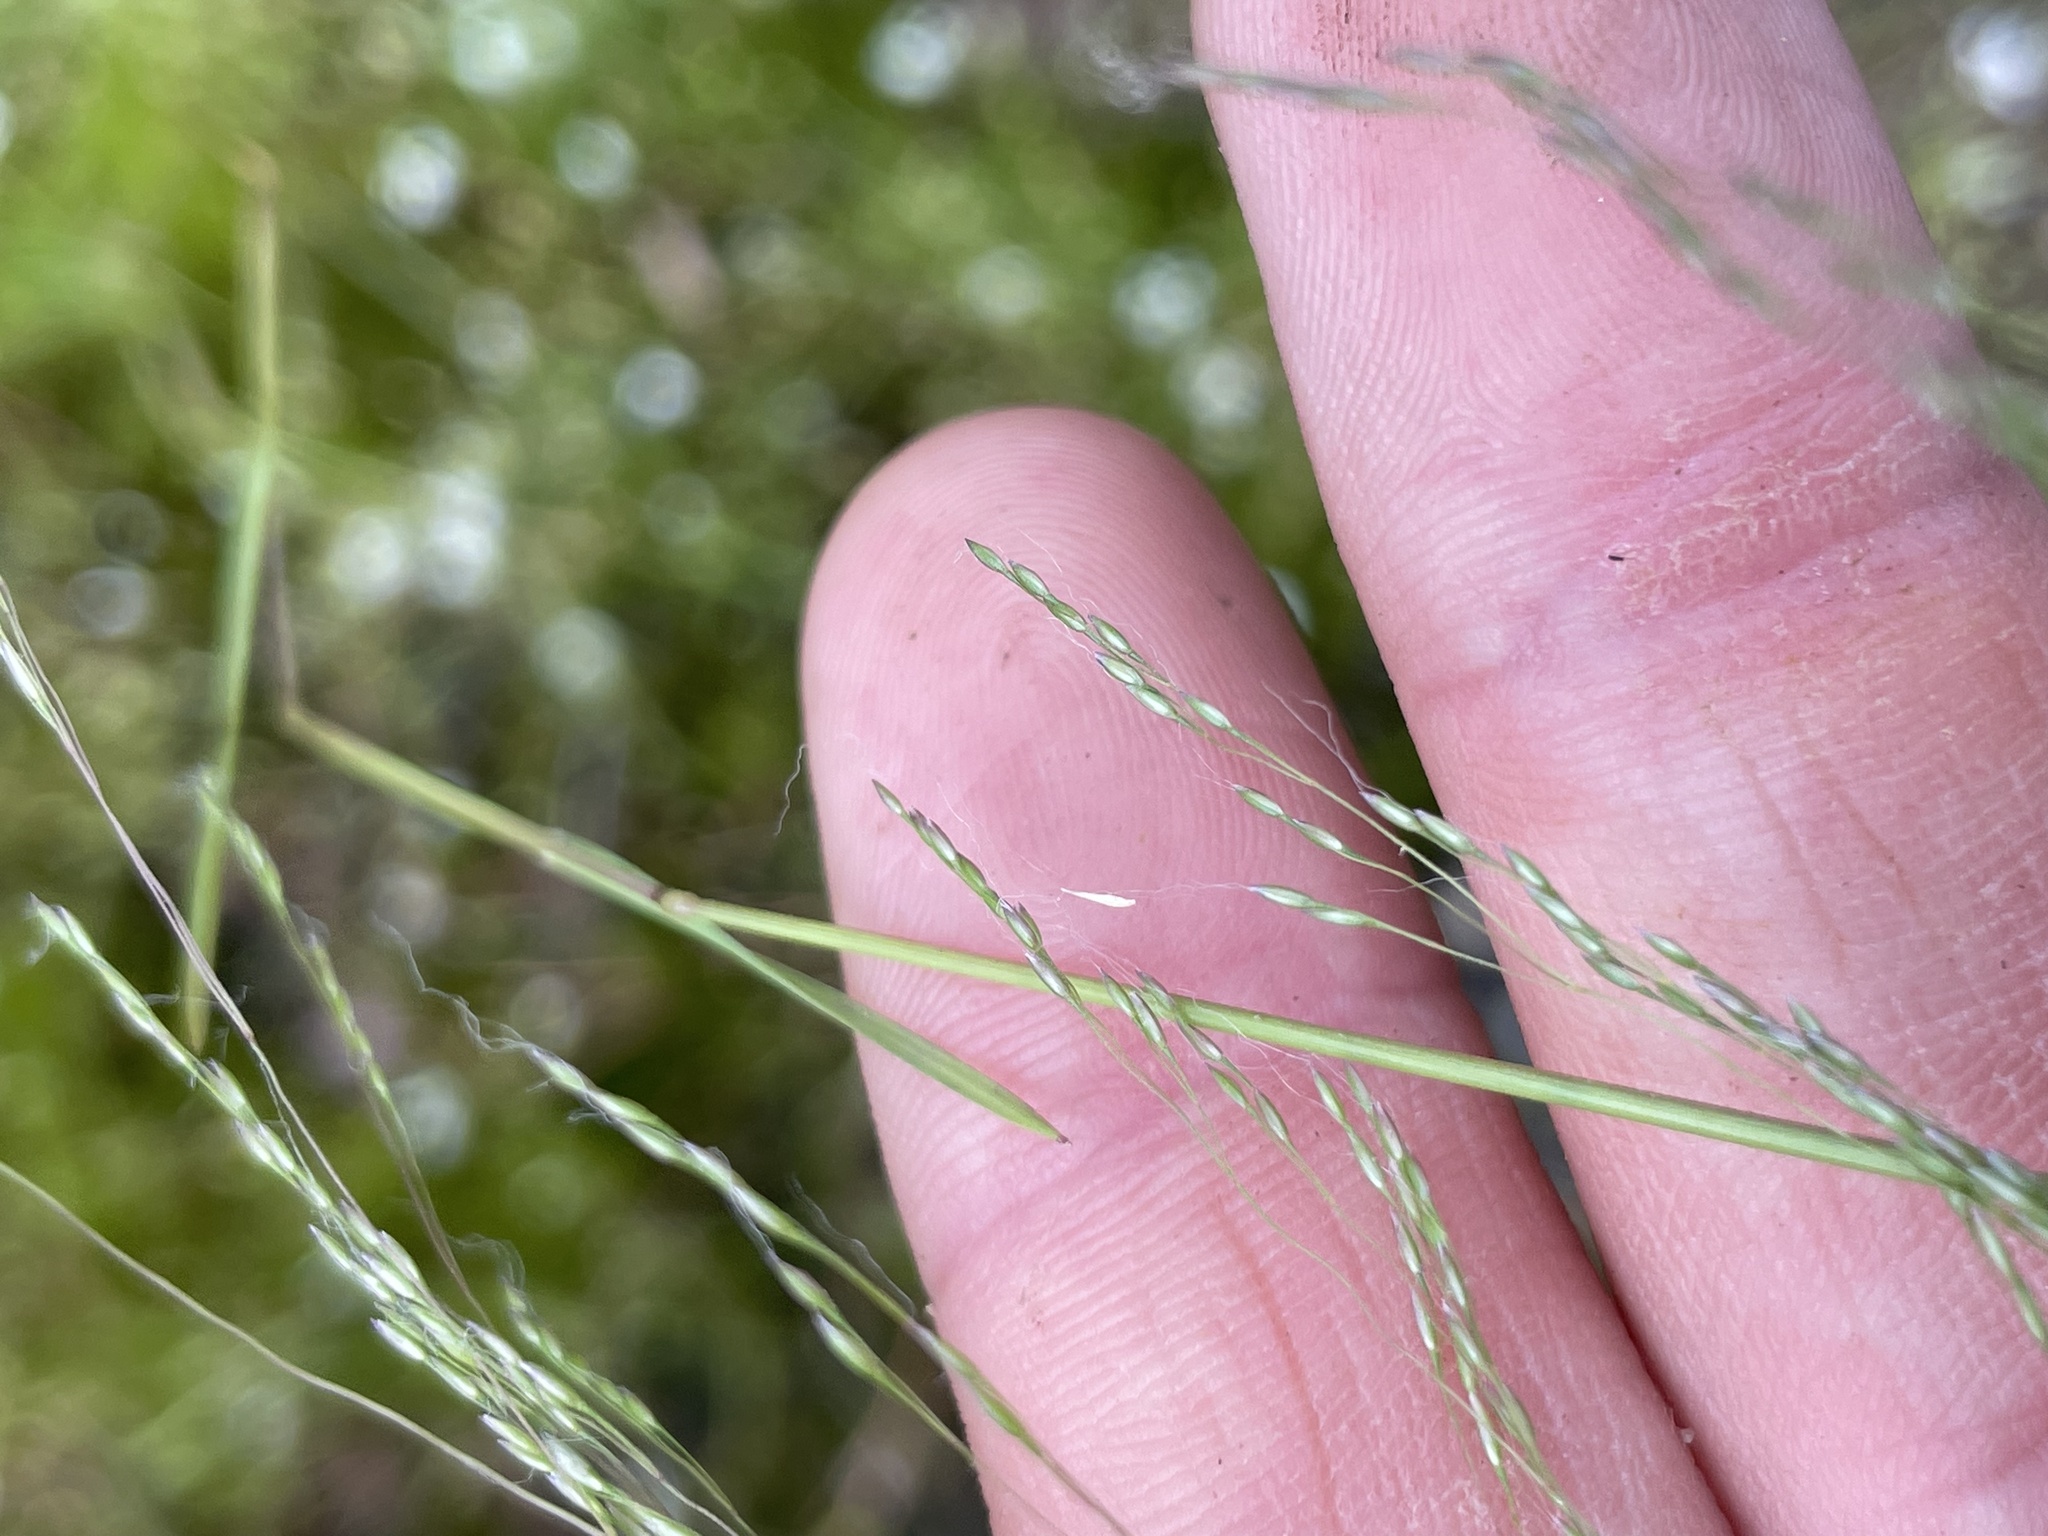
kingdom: Plantae
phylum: Tracheophyta
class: Liliopsida
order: Poales
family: Poaceae
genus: Agrostis
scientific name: Agrostis elliottiana
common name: Elliott's bent
